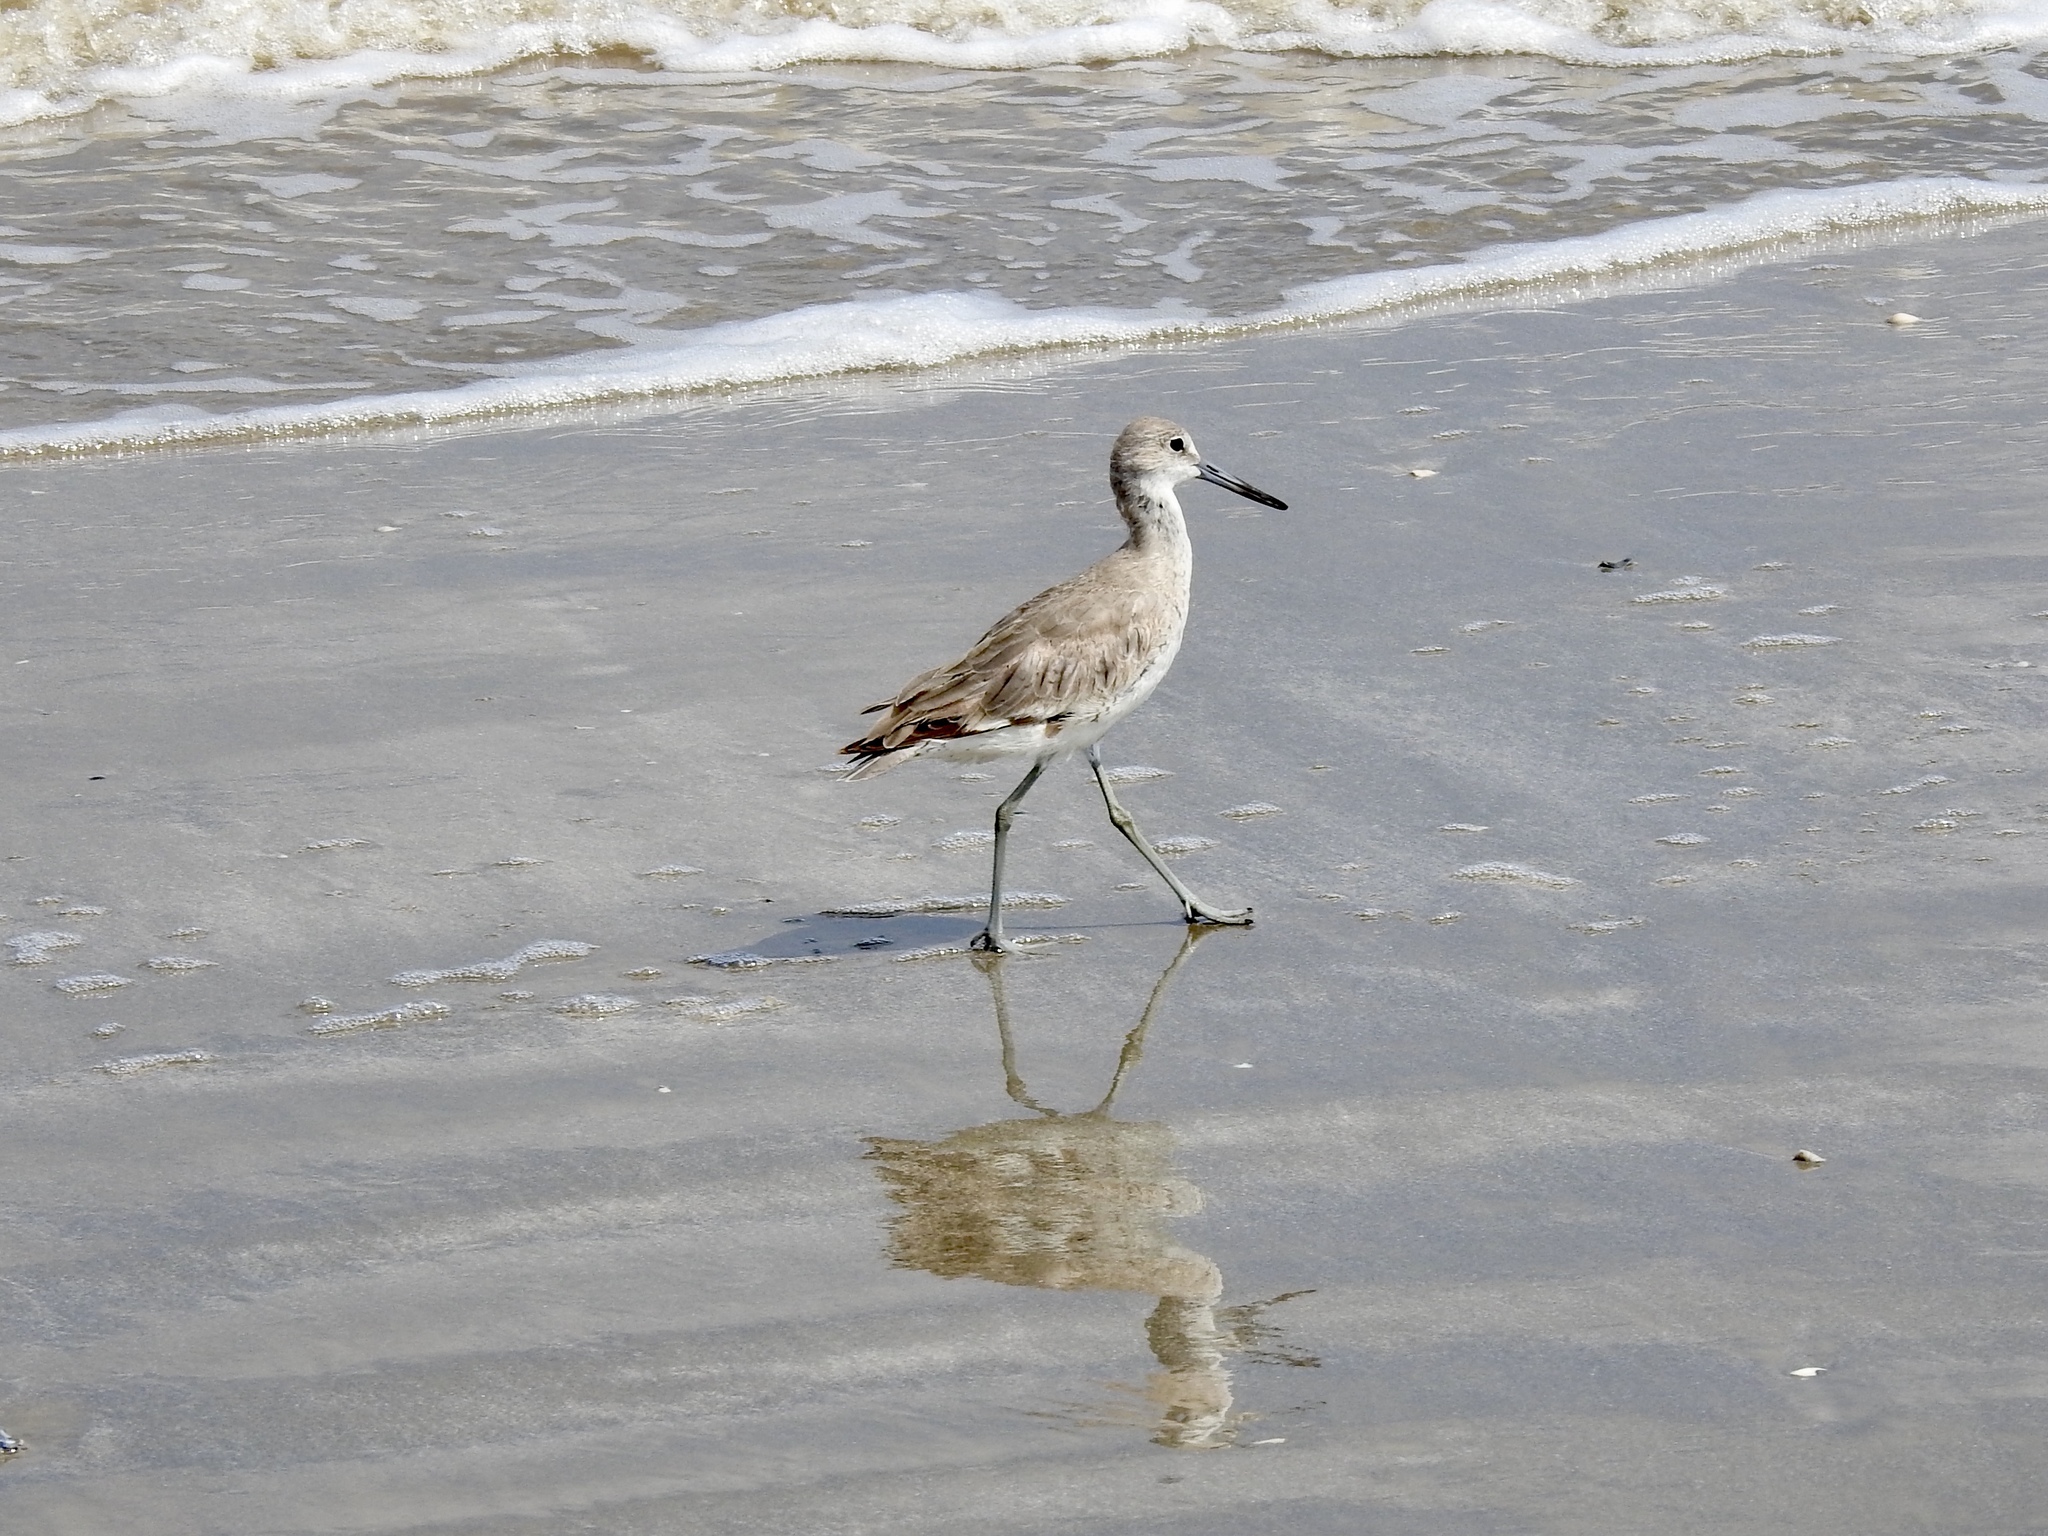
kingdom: Animalia
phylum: Chordata
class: Aves
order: Charadriiformes
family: Scolopacidae
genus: Tringa
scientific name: Tringa semipalmata
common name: Willet
